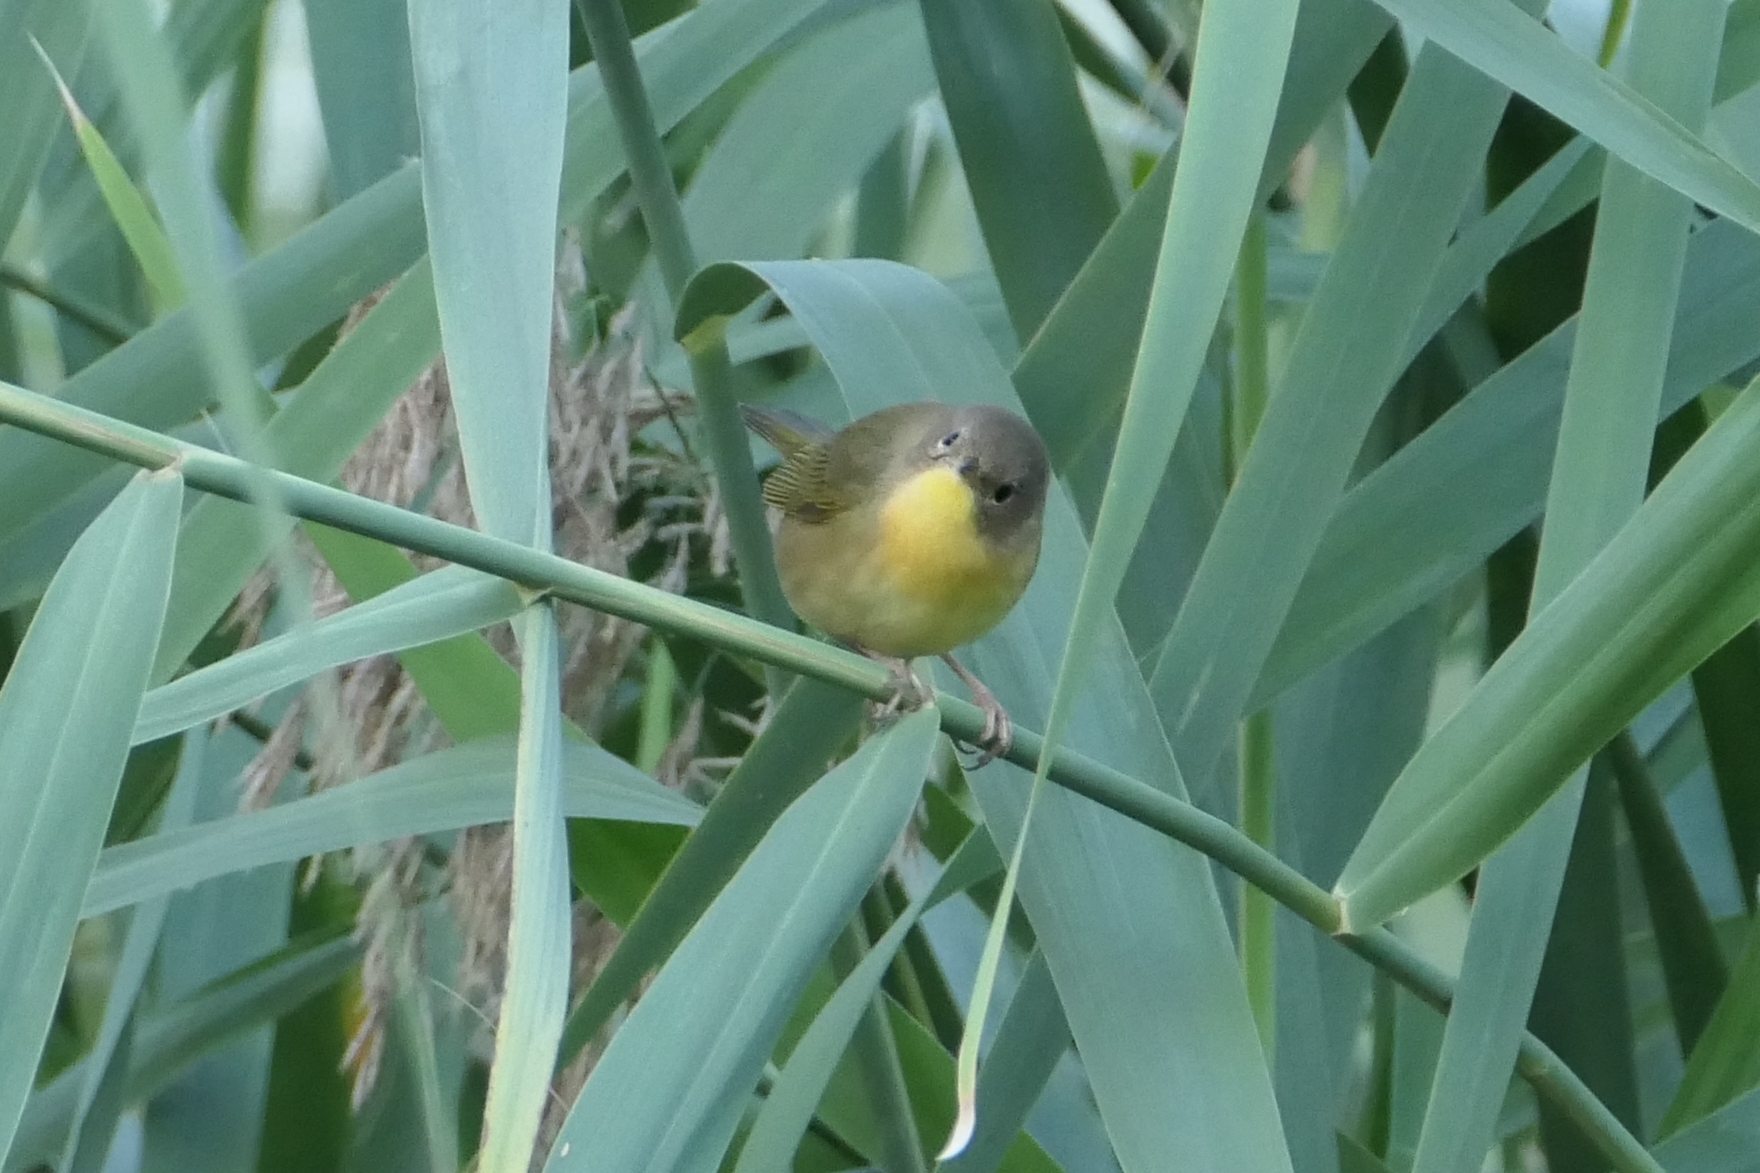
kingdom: Animalia
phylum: Chordata
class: Aves
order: Passeriformes
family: Parulidae
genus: Geothlypis
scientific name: Geothlypis trichas
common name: Common yellowthroat
